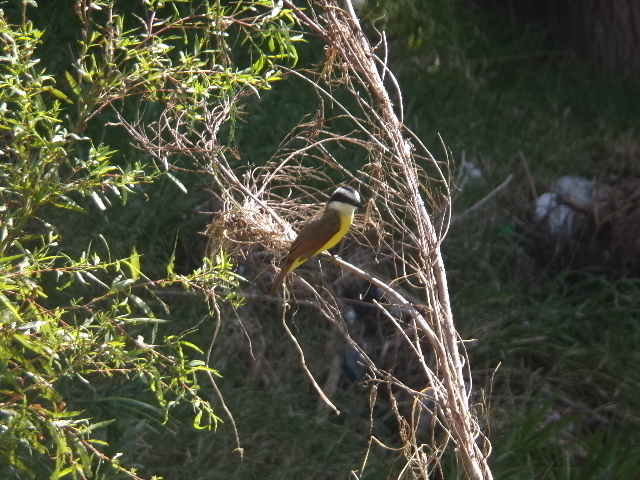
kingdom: Animalia
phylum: Chordata
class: Aves
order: Passeriformes
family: Tyrannidae
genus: Pitangus
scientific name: Pitangus sulphuratus
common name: Great kiskadee
